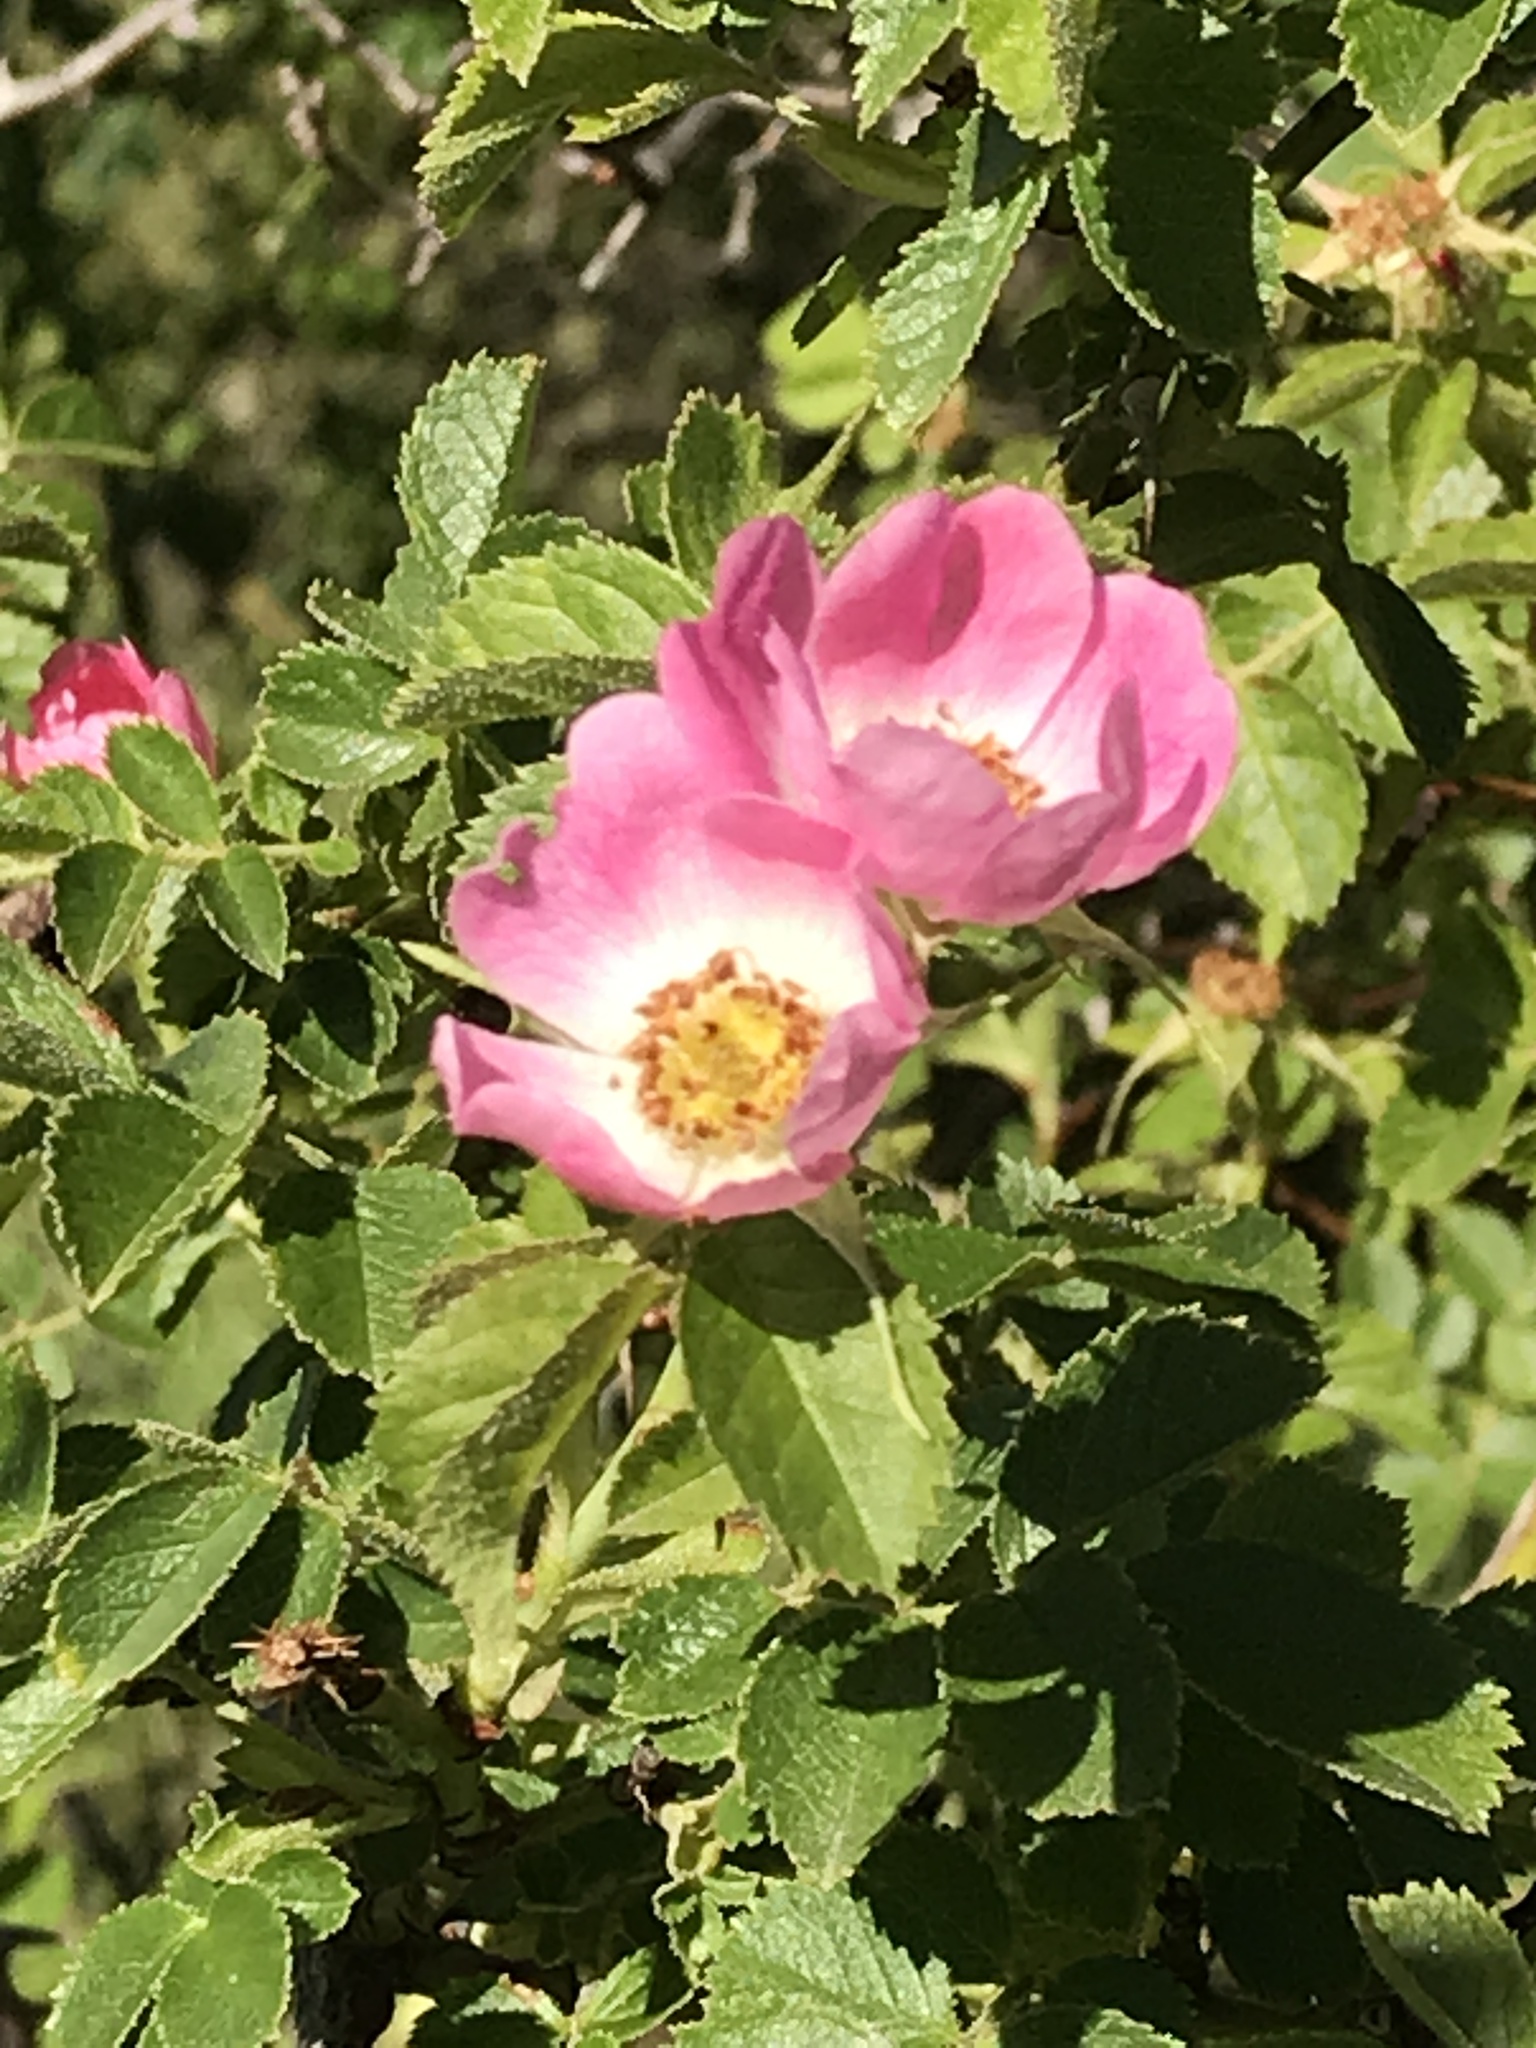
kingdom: Plantae
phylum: Tracheophyta
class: Magnoliopsida
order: Rosales
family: Rosaceae
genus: Rosa
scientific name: Rosa rubiginosa
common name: Sweet-briar
